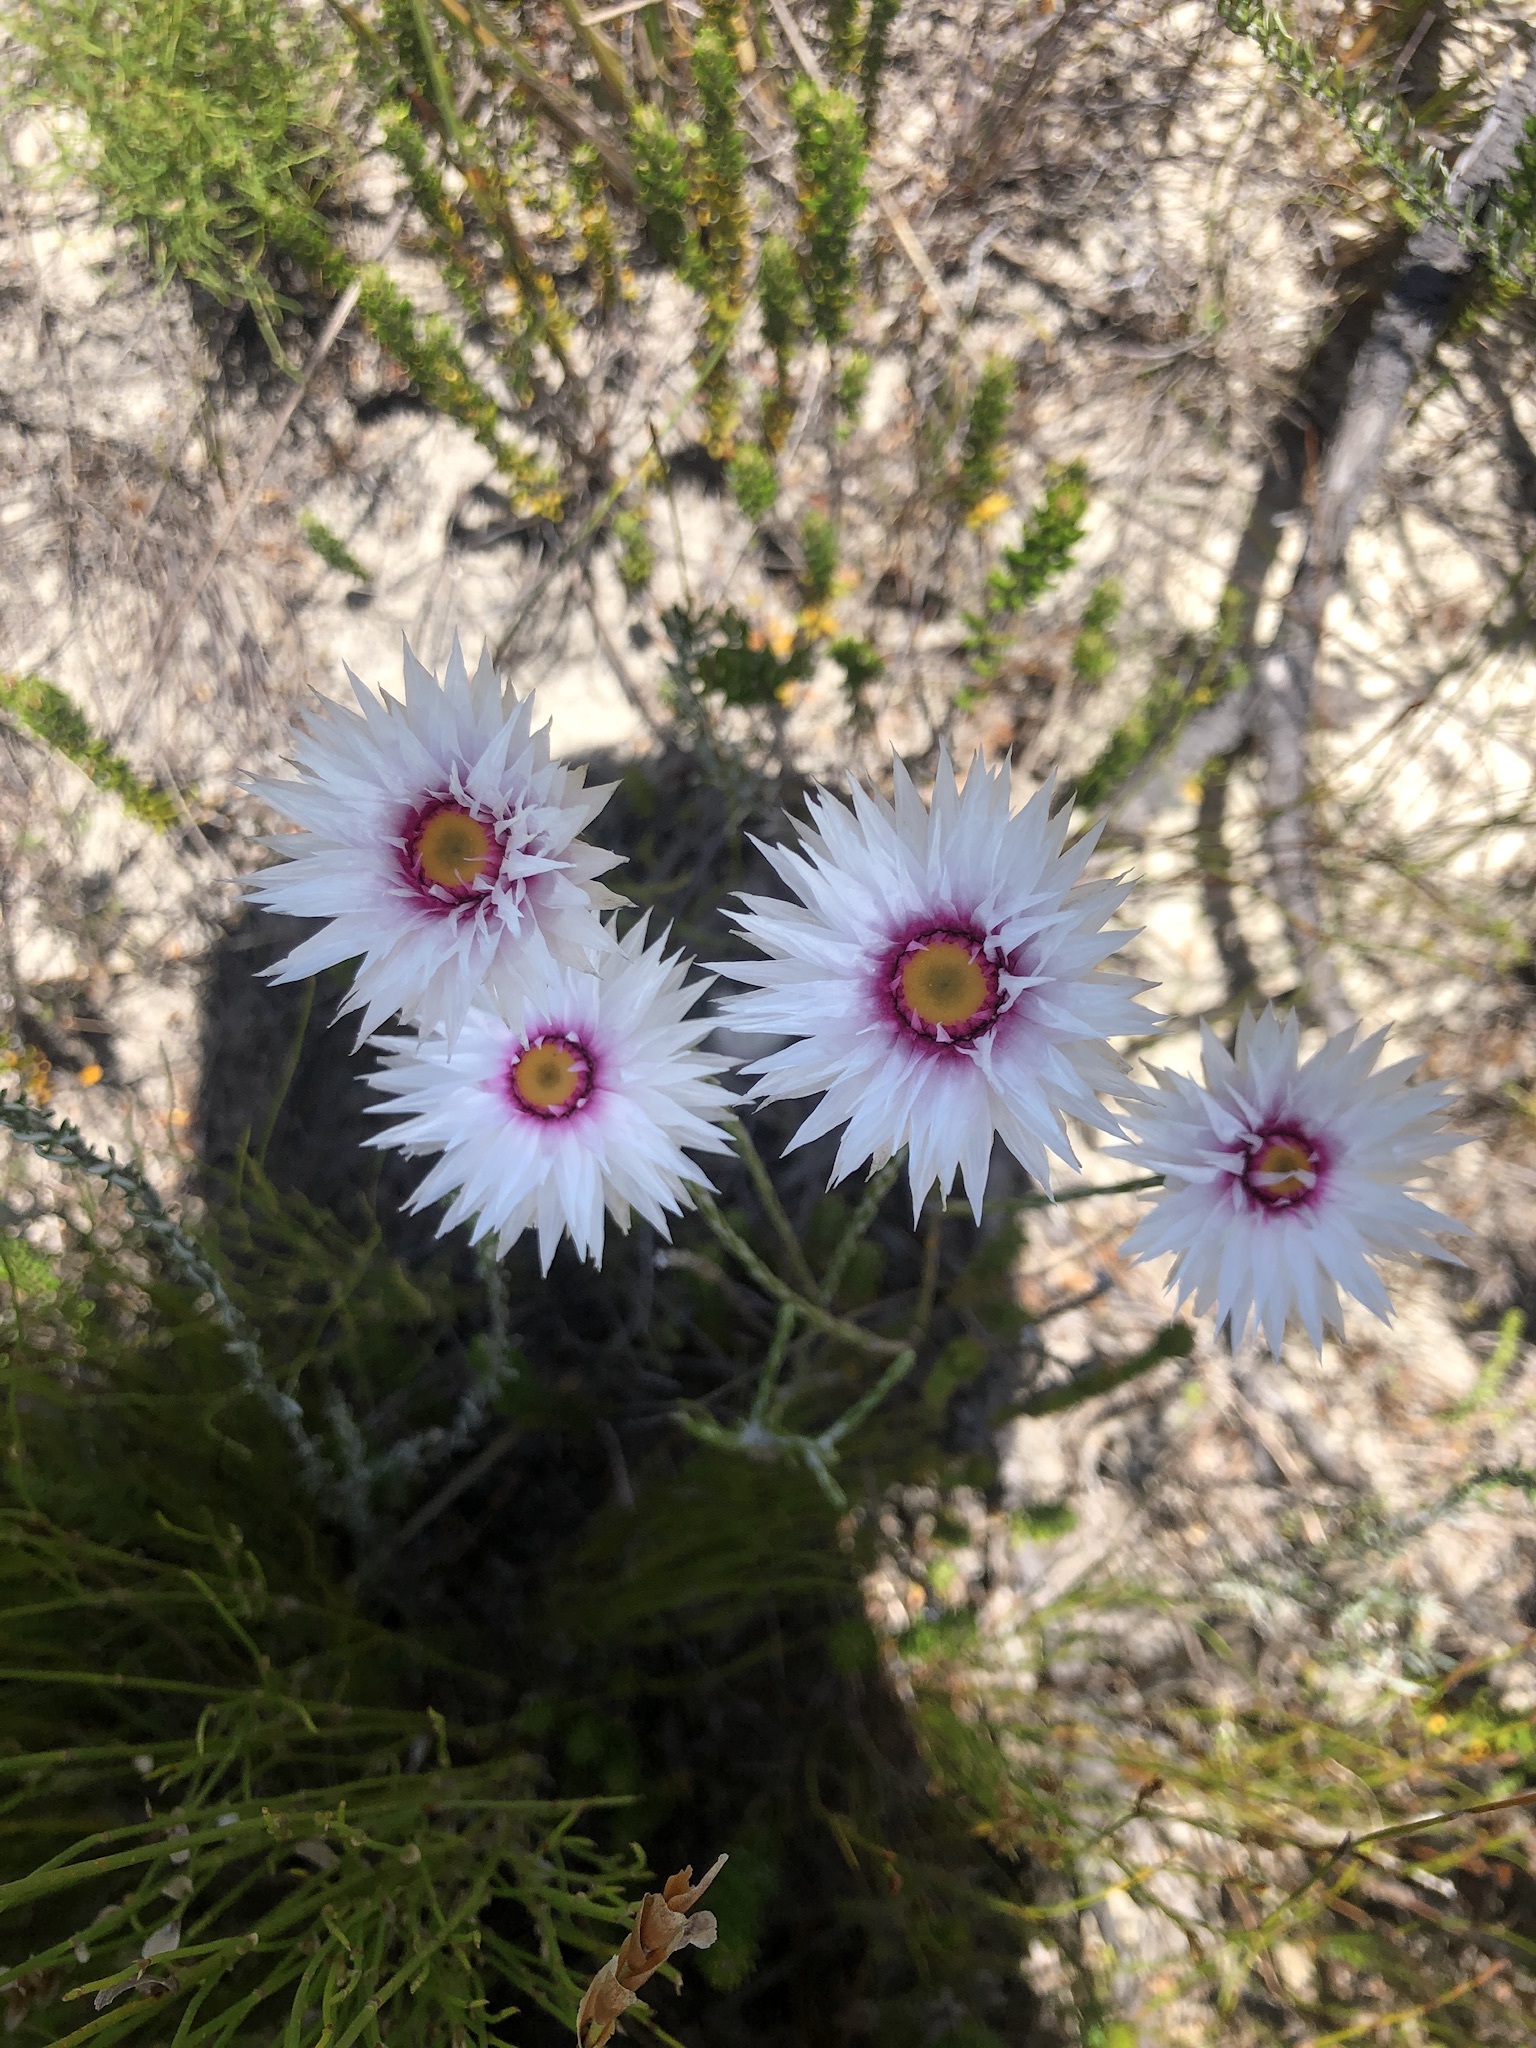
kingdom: Plantae
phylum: Tracheophyta
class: Magnoliopsida
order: Asterales
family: Asteraceae
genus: Edmondia
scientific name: Edmondia sesamoides
